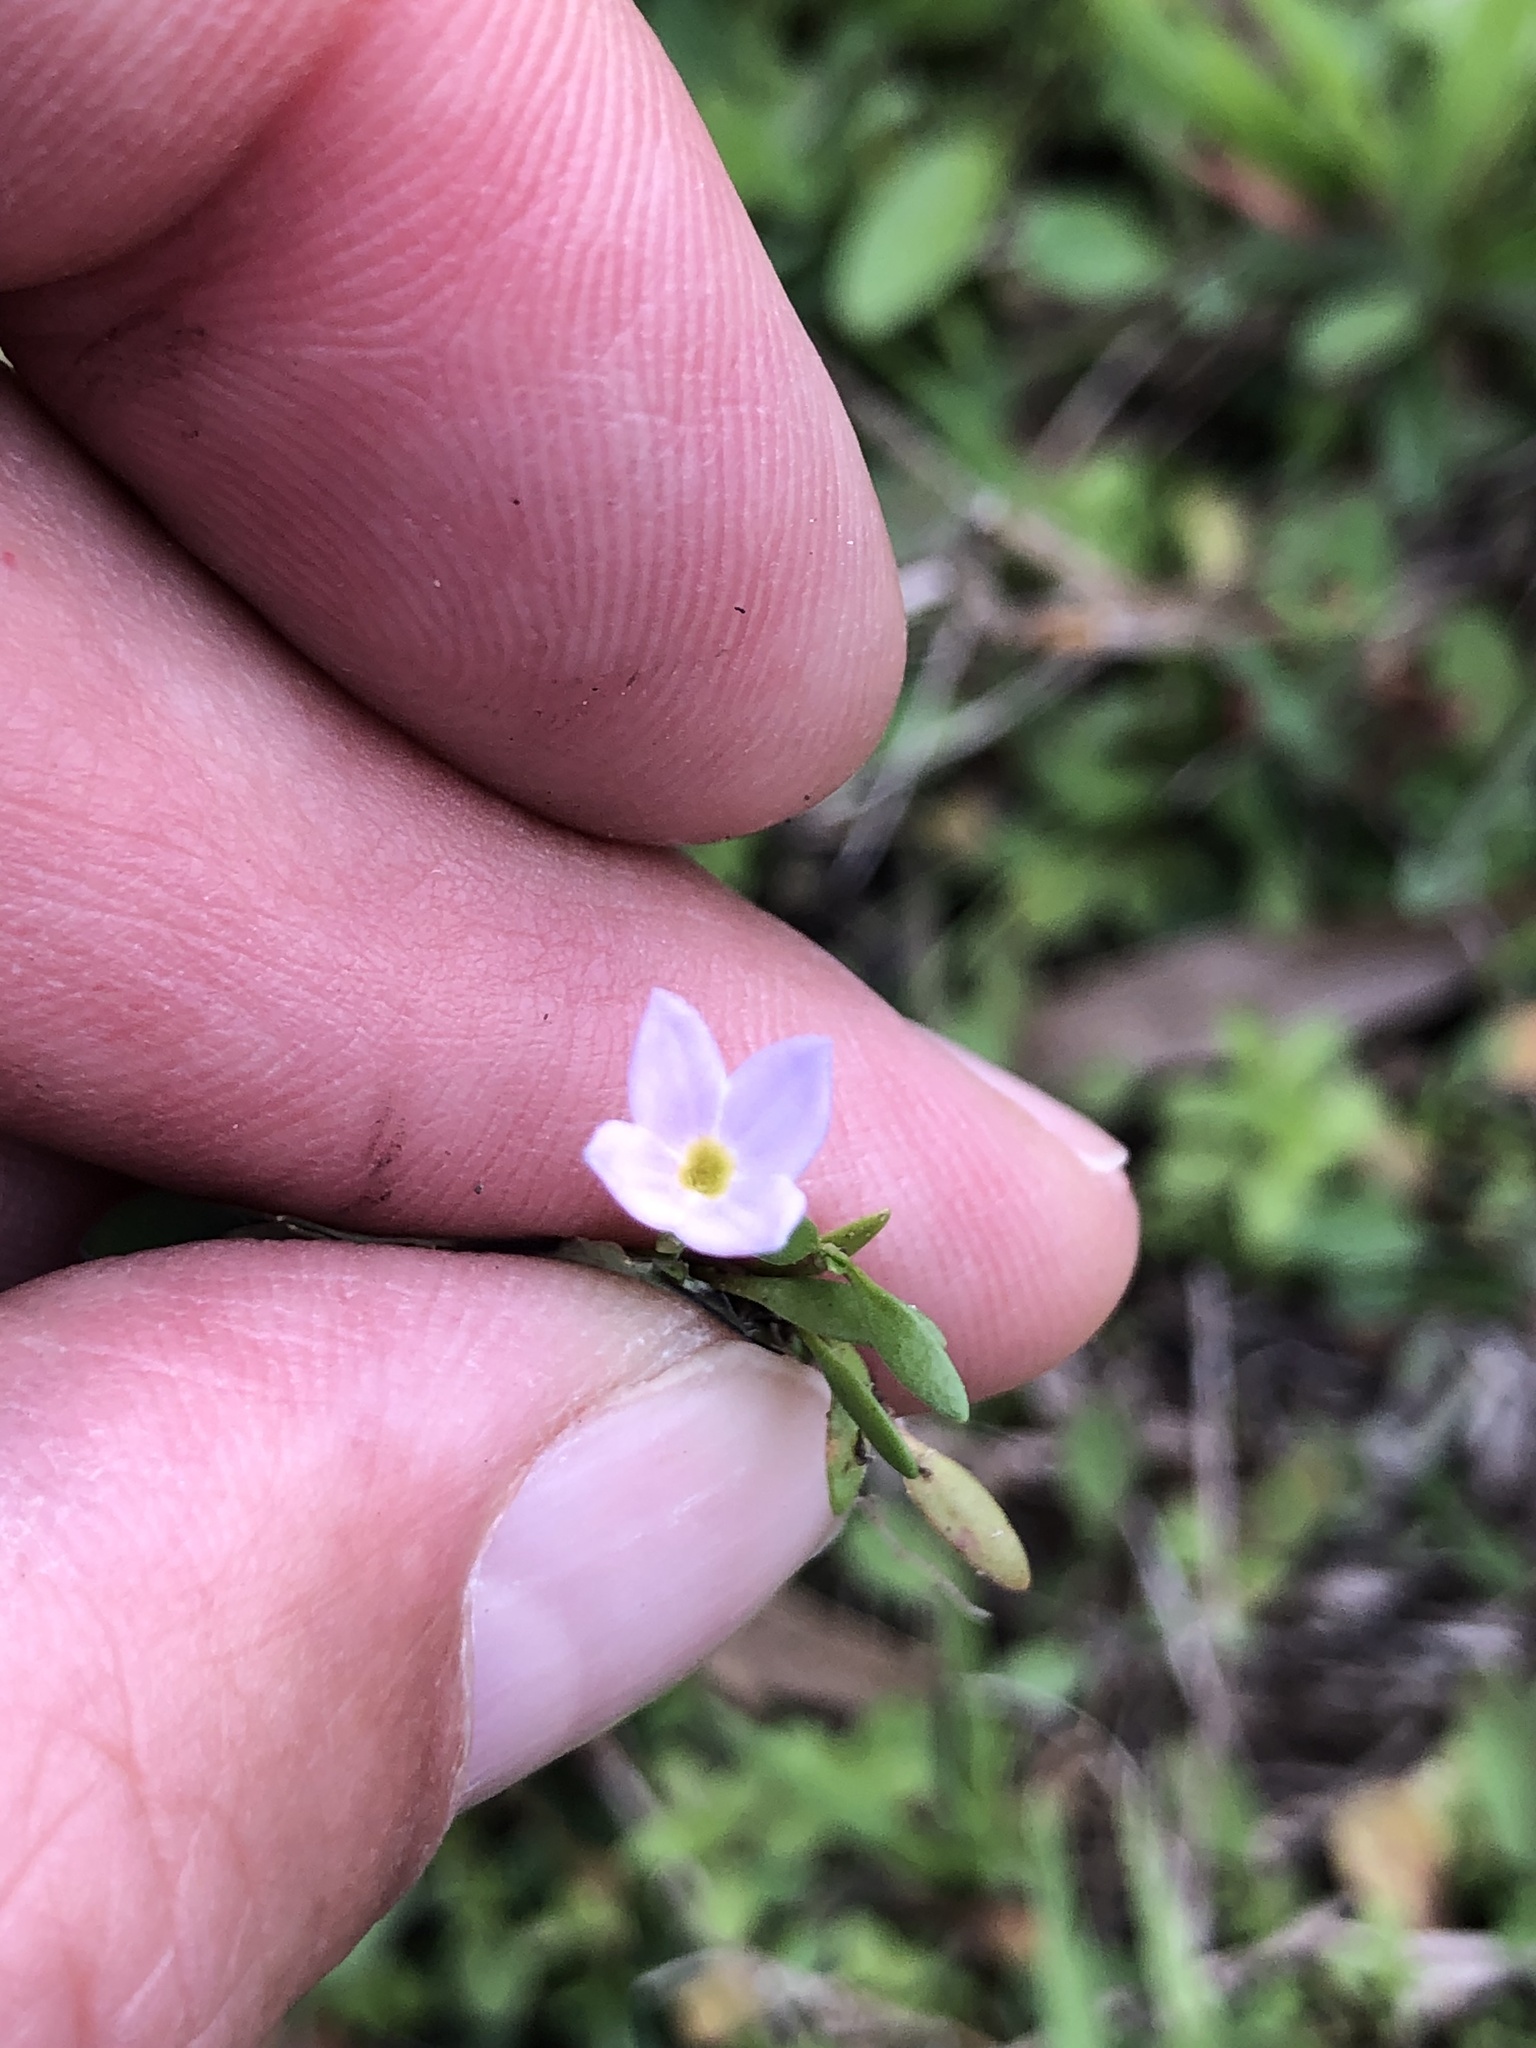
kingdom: Plantae
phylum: Tracheophyta
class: Magnoliopsida
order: Gentianales
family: Rubiaceae
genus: Houstonia
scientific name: Houstonia rosea
